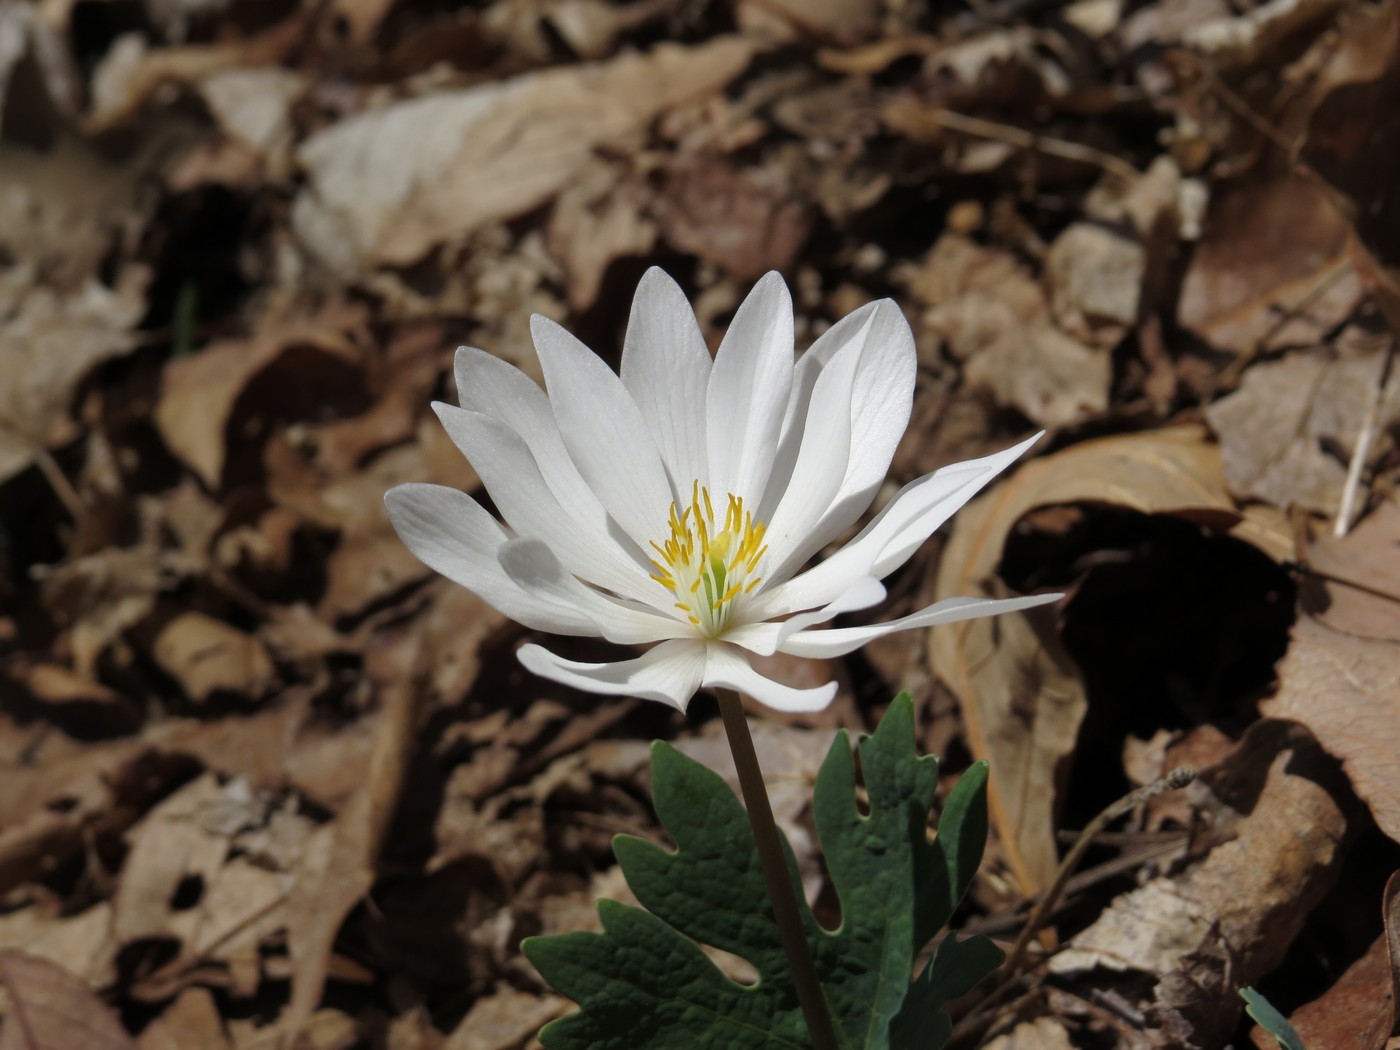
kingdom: Plantae
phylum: Tracheophyta
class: Magnoliopsida
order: Ranunculales
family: Papaveraceae
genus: Sanguinaria
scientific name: Sanguinaria canadensis
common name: Bloodroot
